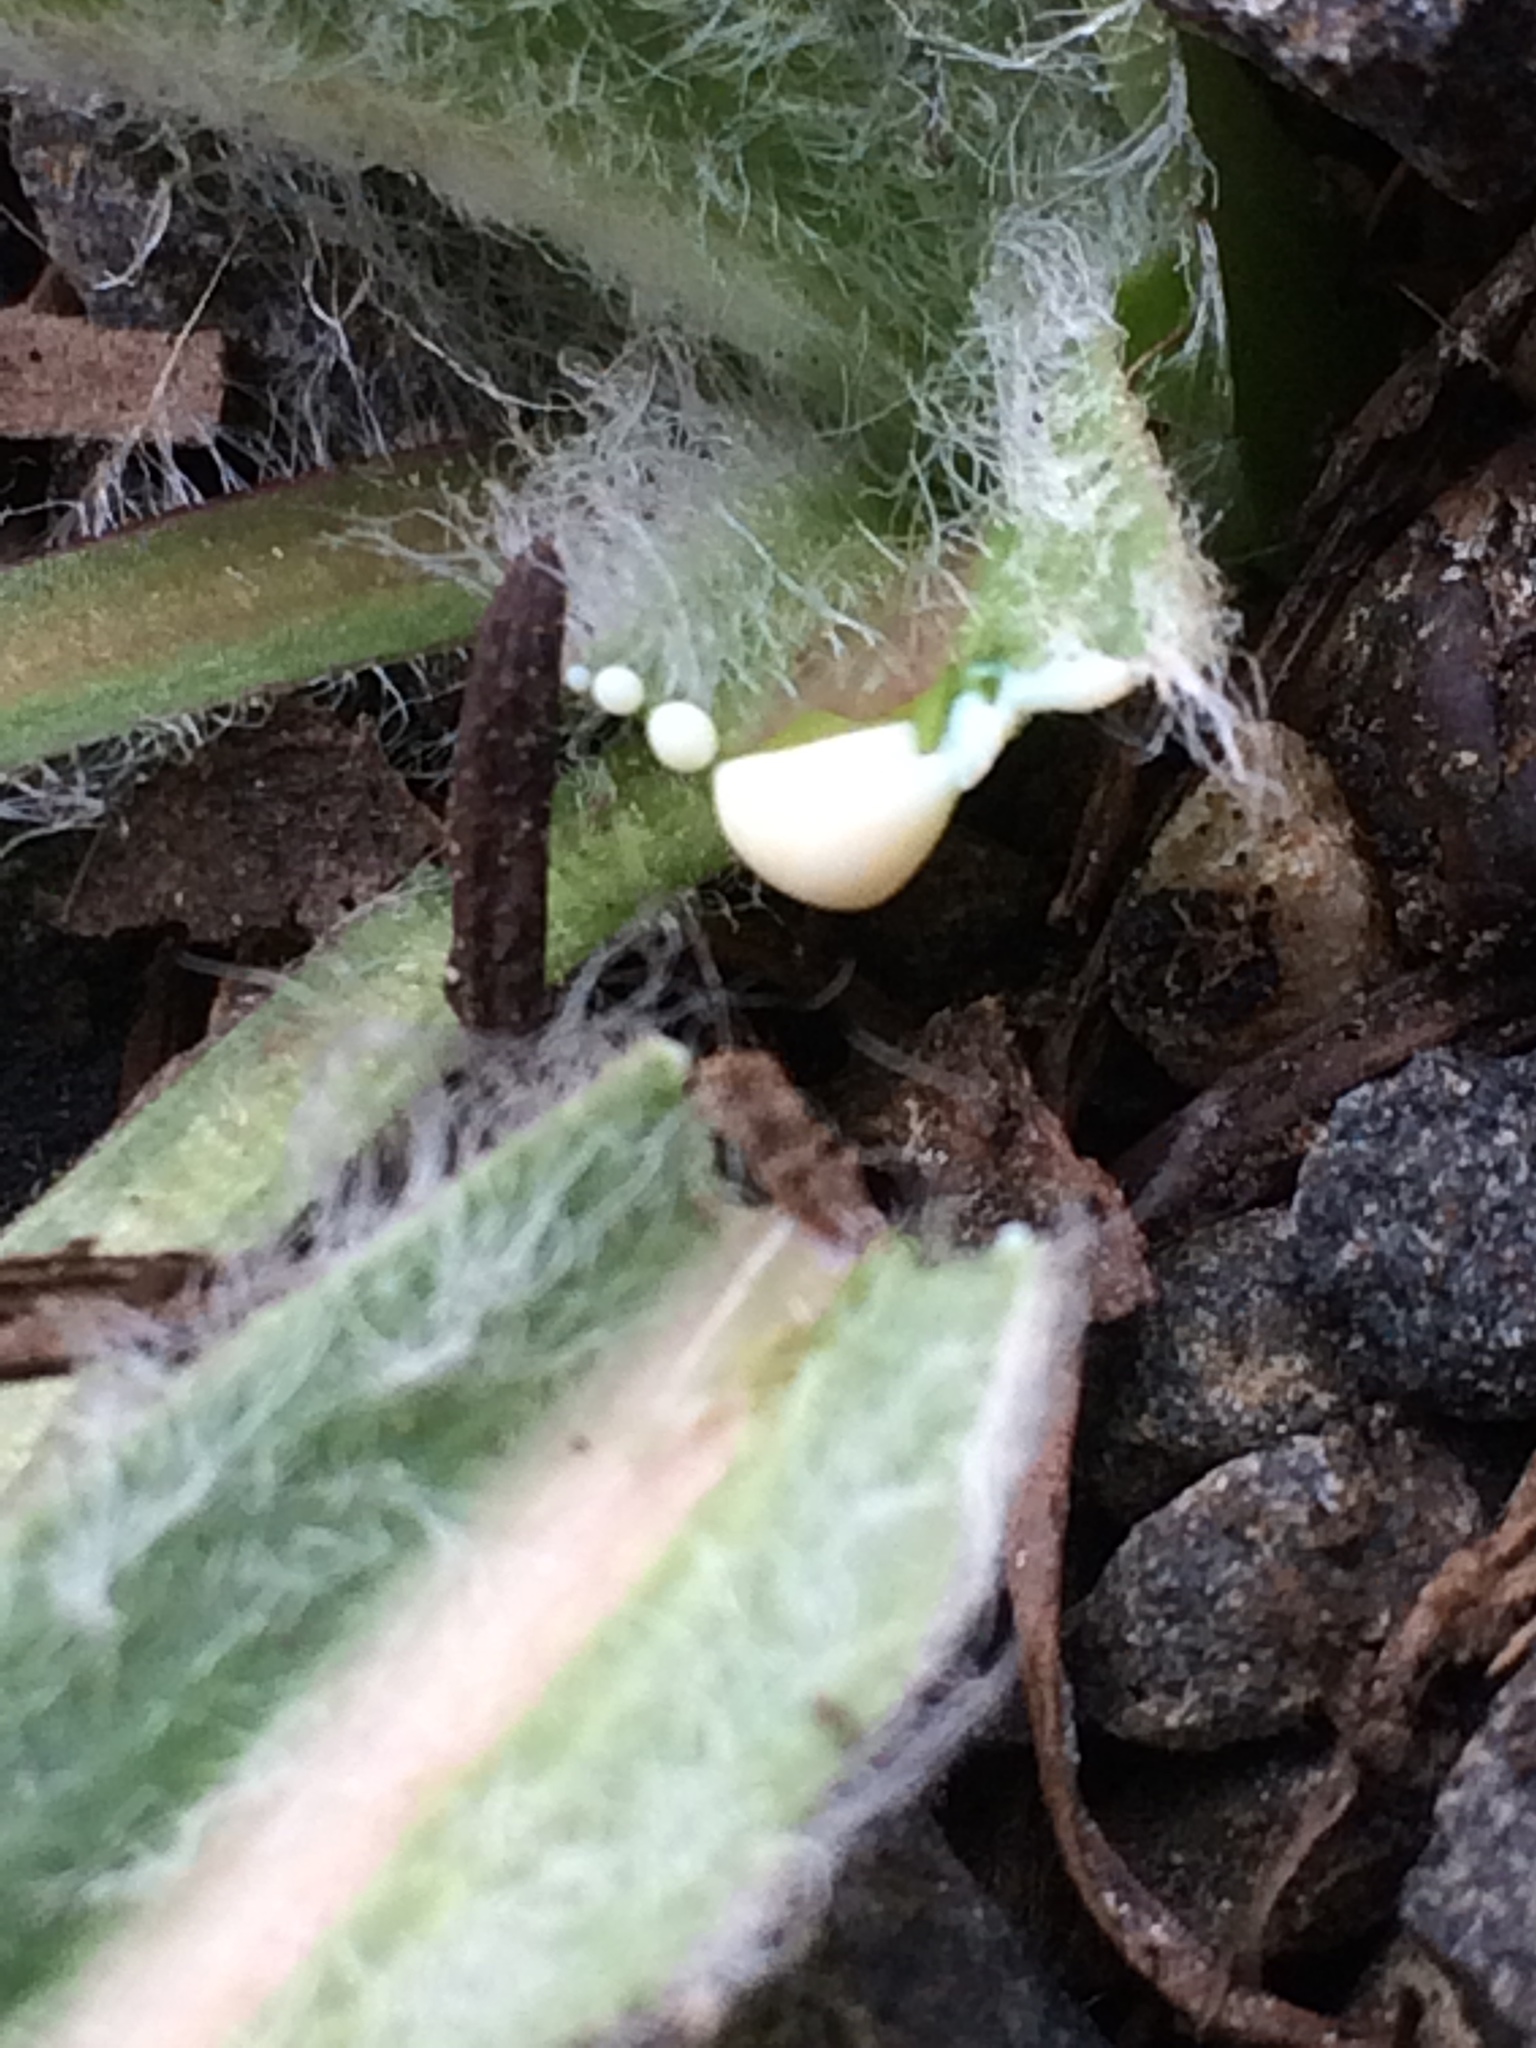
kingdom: Plantae
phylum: Tracheophyta
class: Magnoliopsida
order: Asterales
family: Asteraceae
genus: Lactuca
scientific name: Lactuca saligna
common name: Wild lettuce
